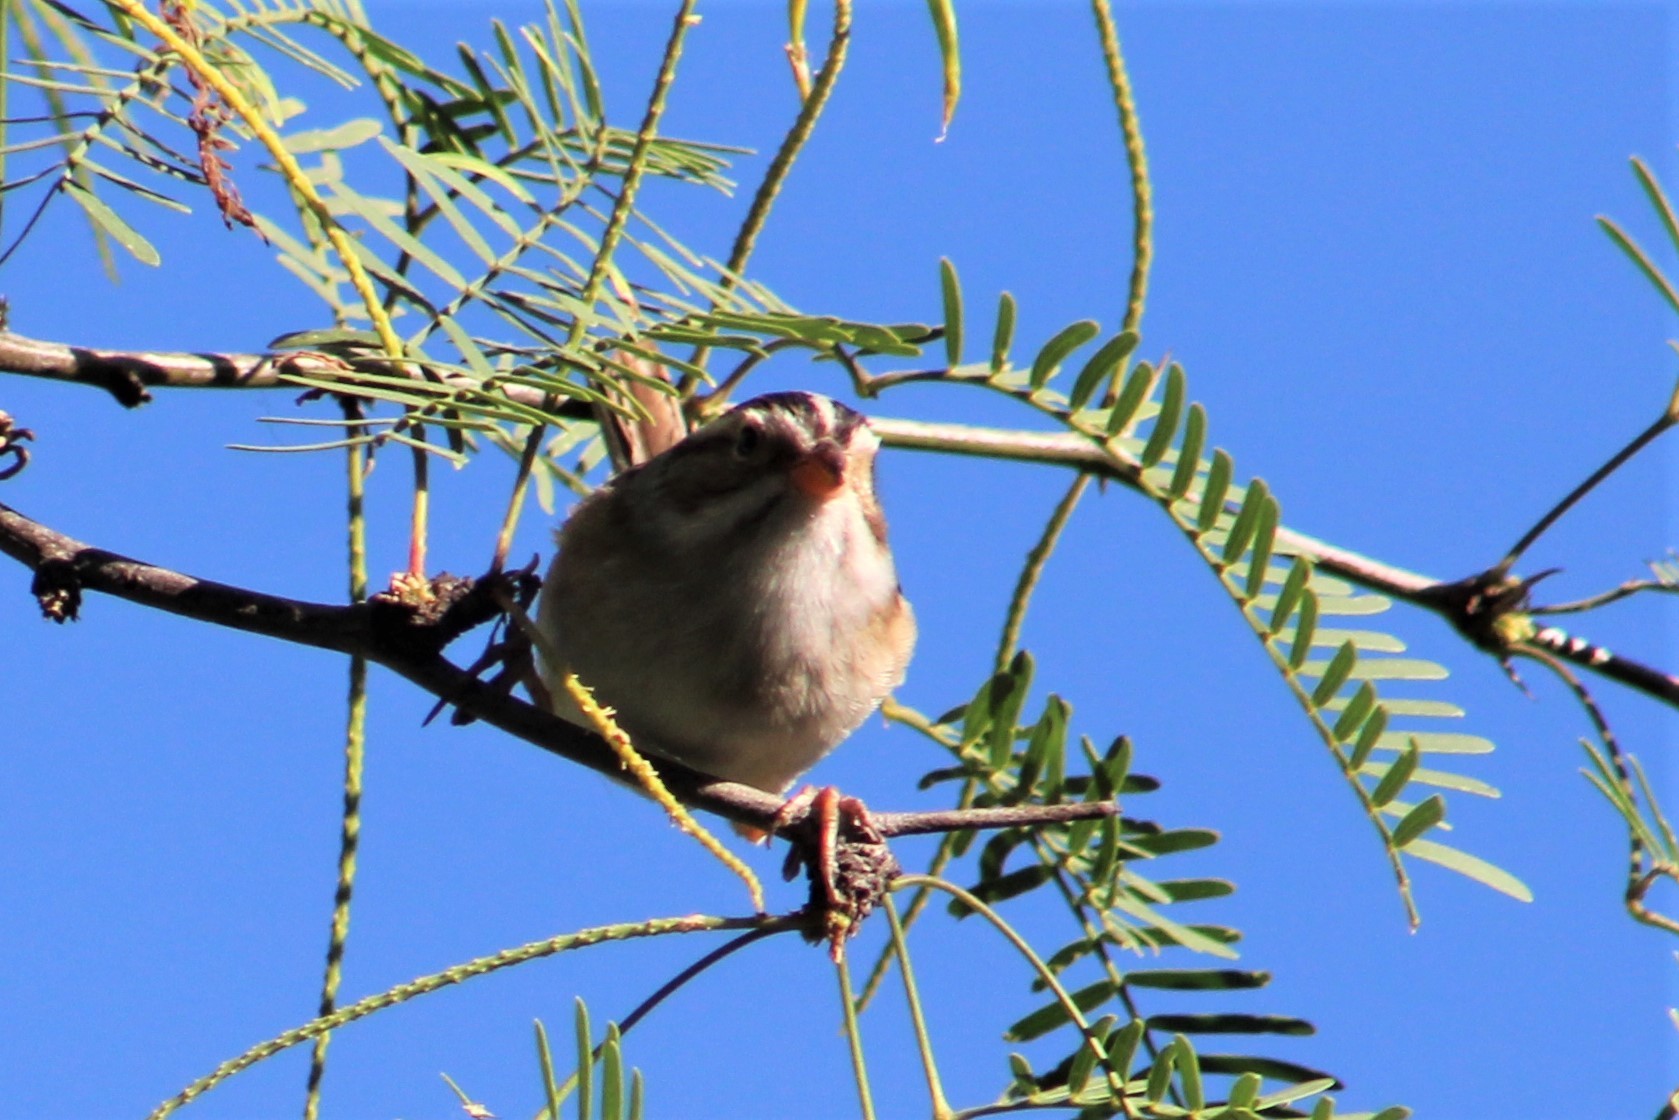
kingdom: Animalia
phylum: Chordata
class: Aves
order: Passeriformes
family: Passerellidae
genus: Spizella
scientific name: Spizella pallida
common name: Clay-colored sparrow
